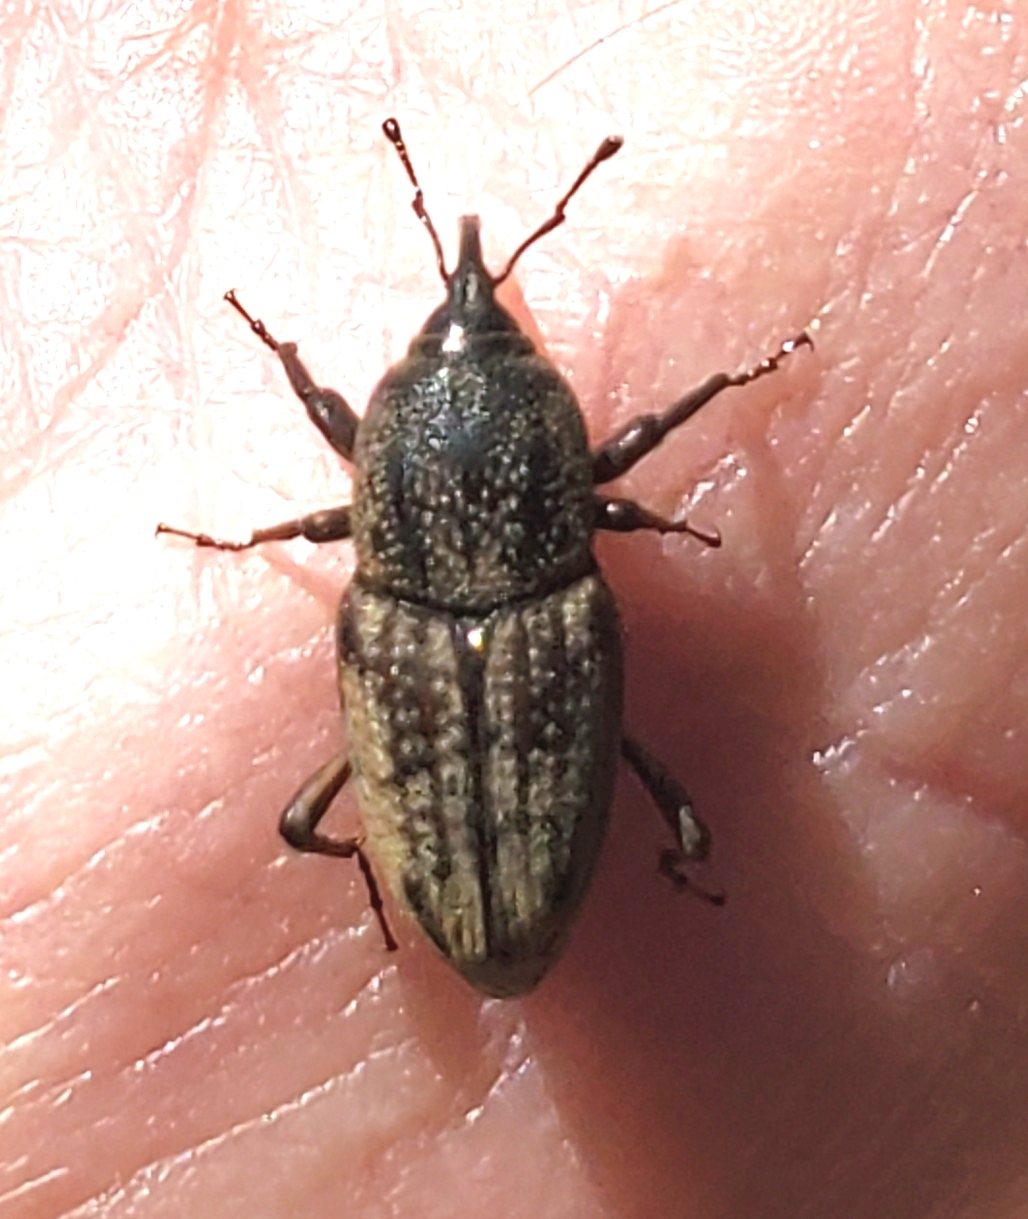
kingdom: Animalia
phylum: Arthropoda
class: Insecta
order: Coleoptera
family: Dryophthoridae
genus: Sphenophorus
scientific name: Sphenophorus venatus
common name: Hunting billbug
